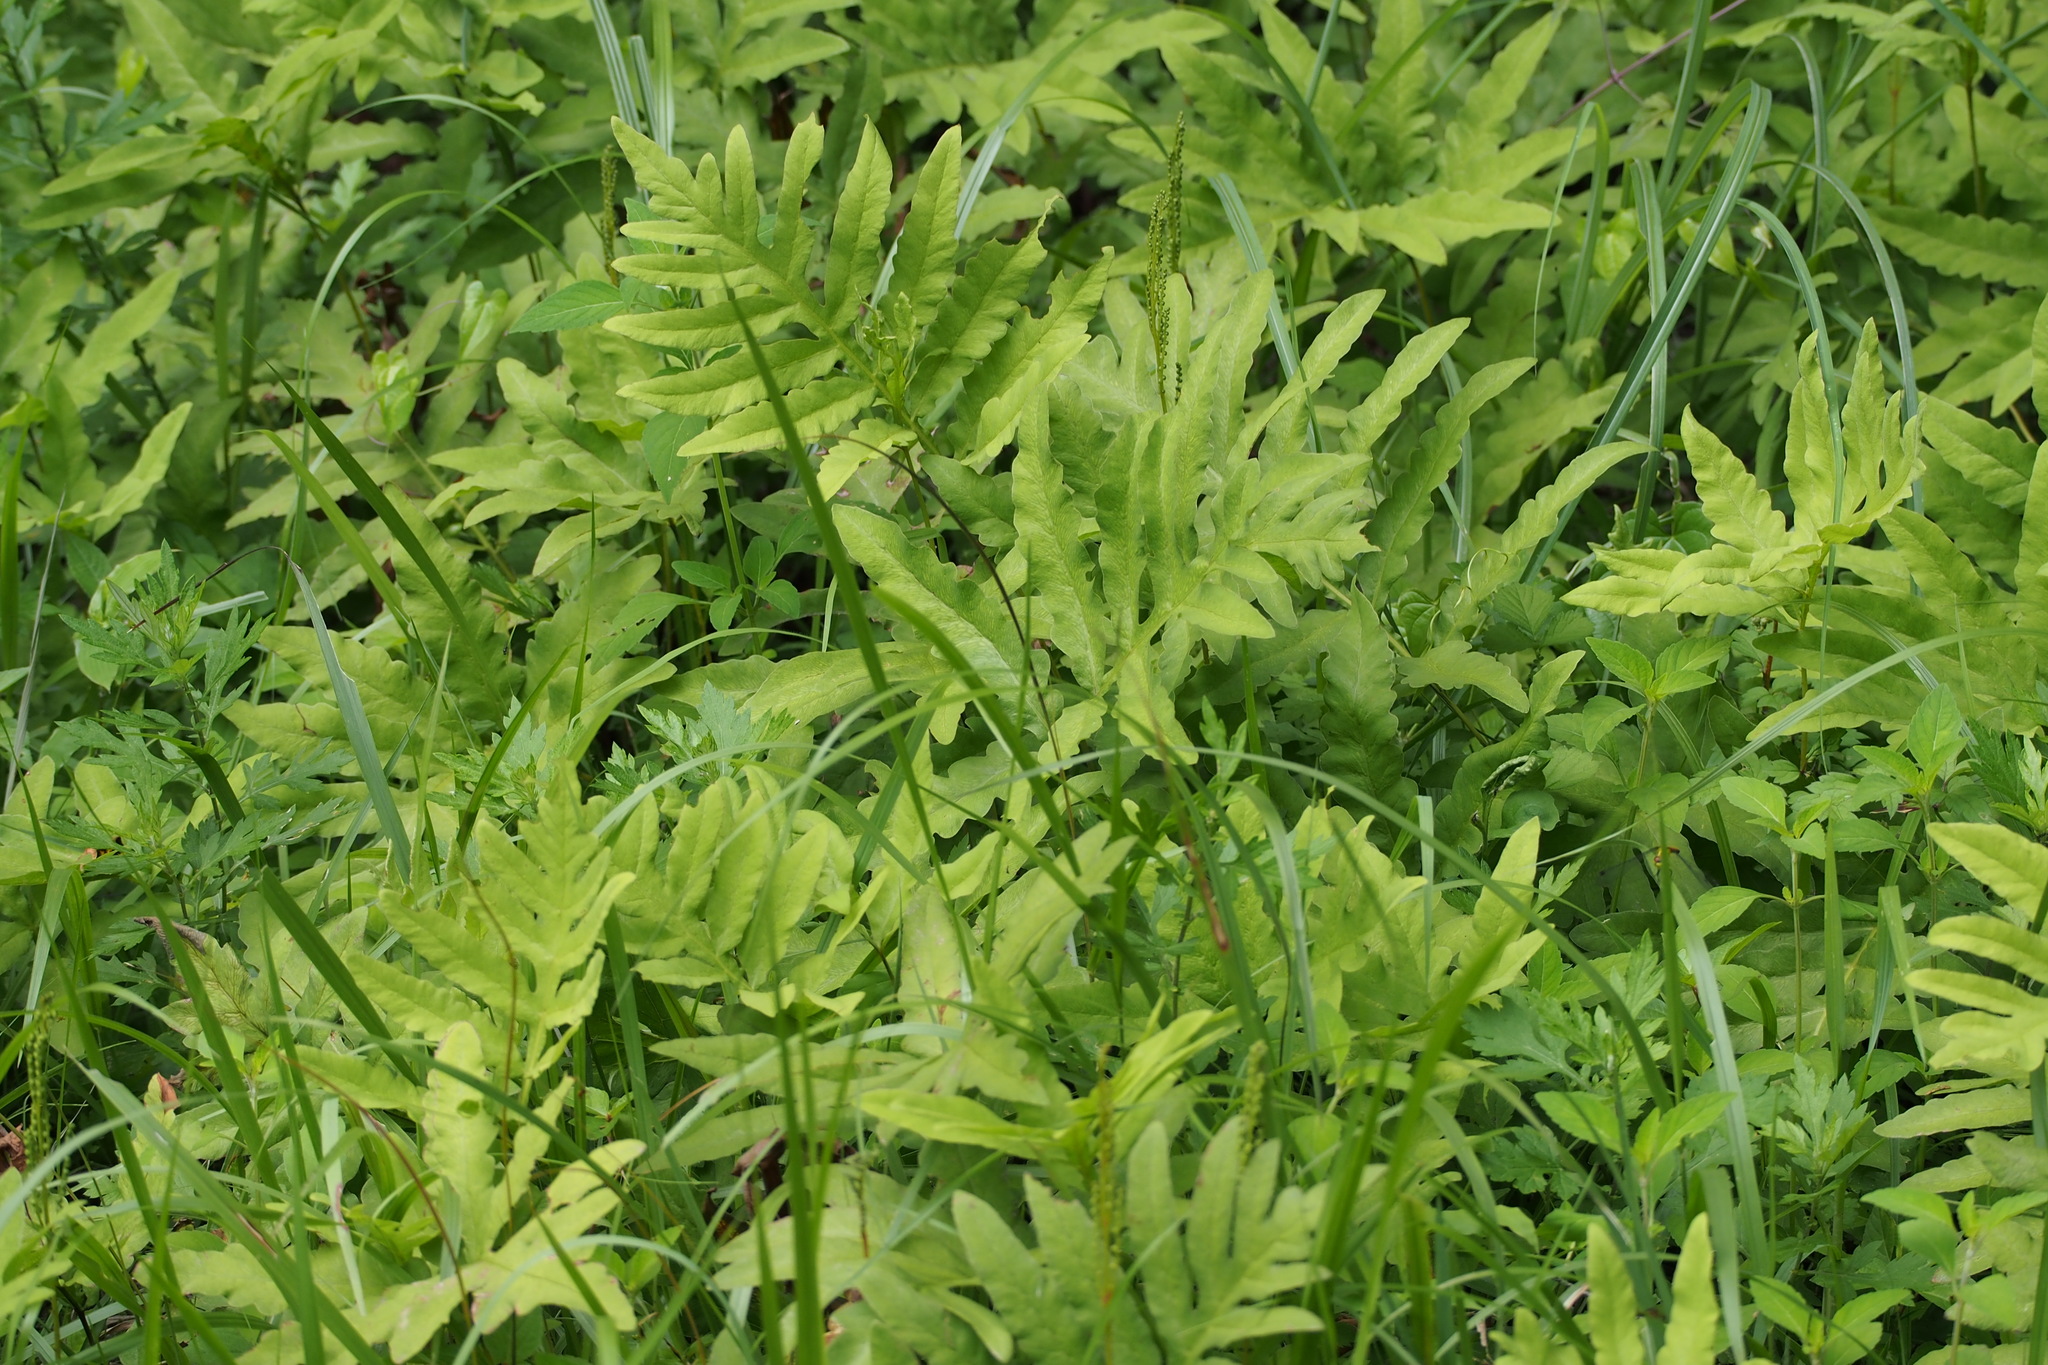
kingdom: Plantae
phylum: Tracheophyta
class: Polypodiopsida
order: Polypodiales
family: Onocleaceae
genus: Onoclea
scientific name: Onoclea sensibilis
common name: Sensitive fern
